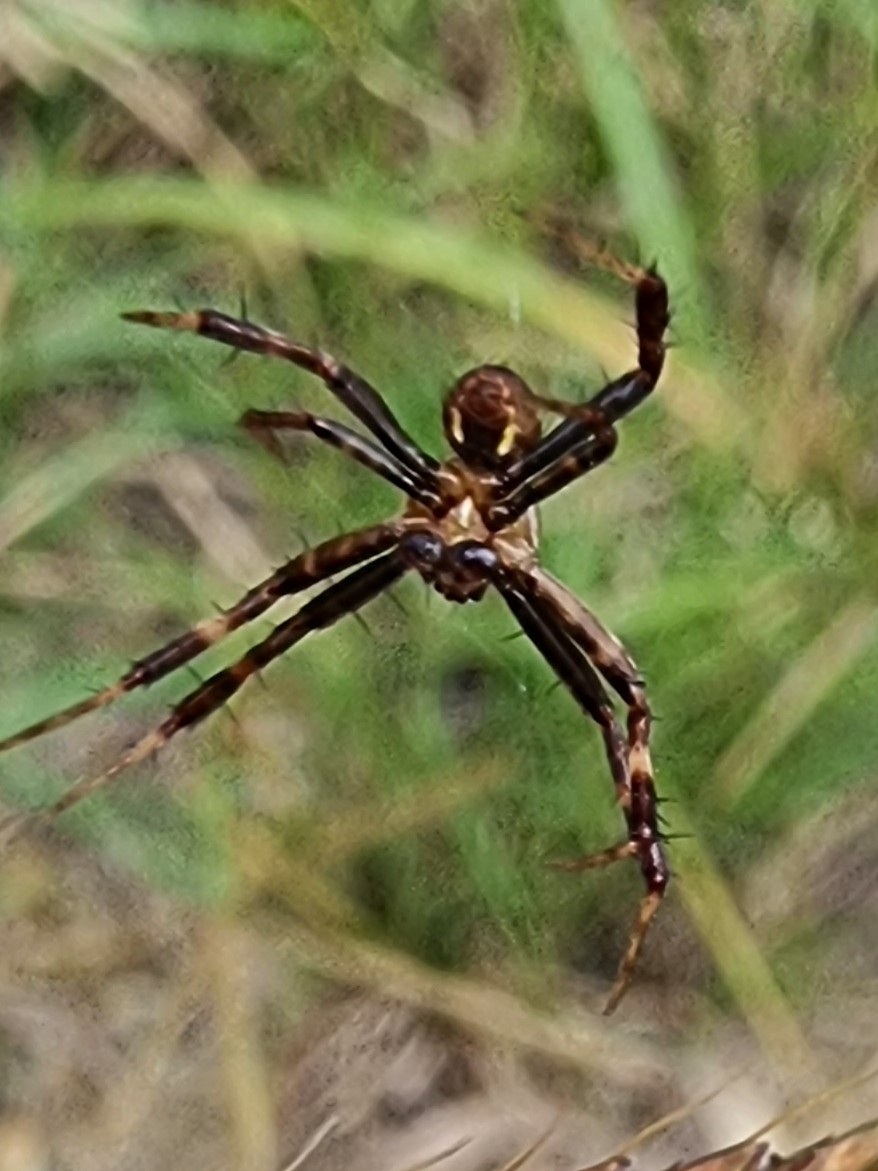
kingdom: Animalia
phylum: Arthropoda
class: Arachnida
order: Araneae
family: Araneidae
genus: Gea
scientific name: Gea theridioides
